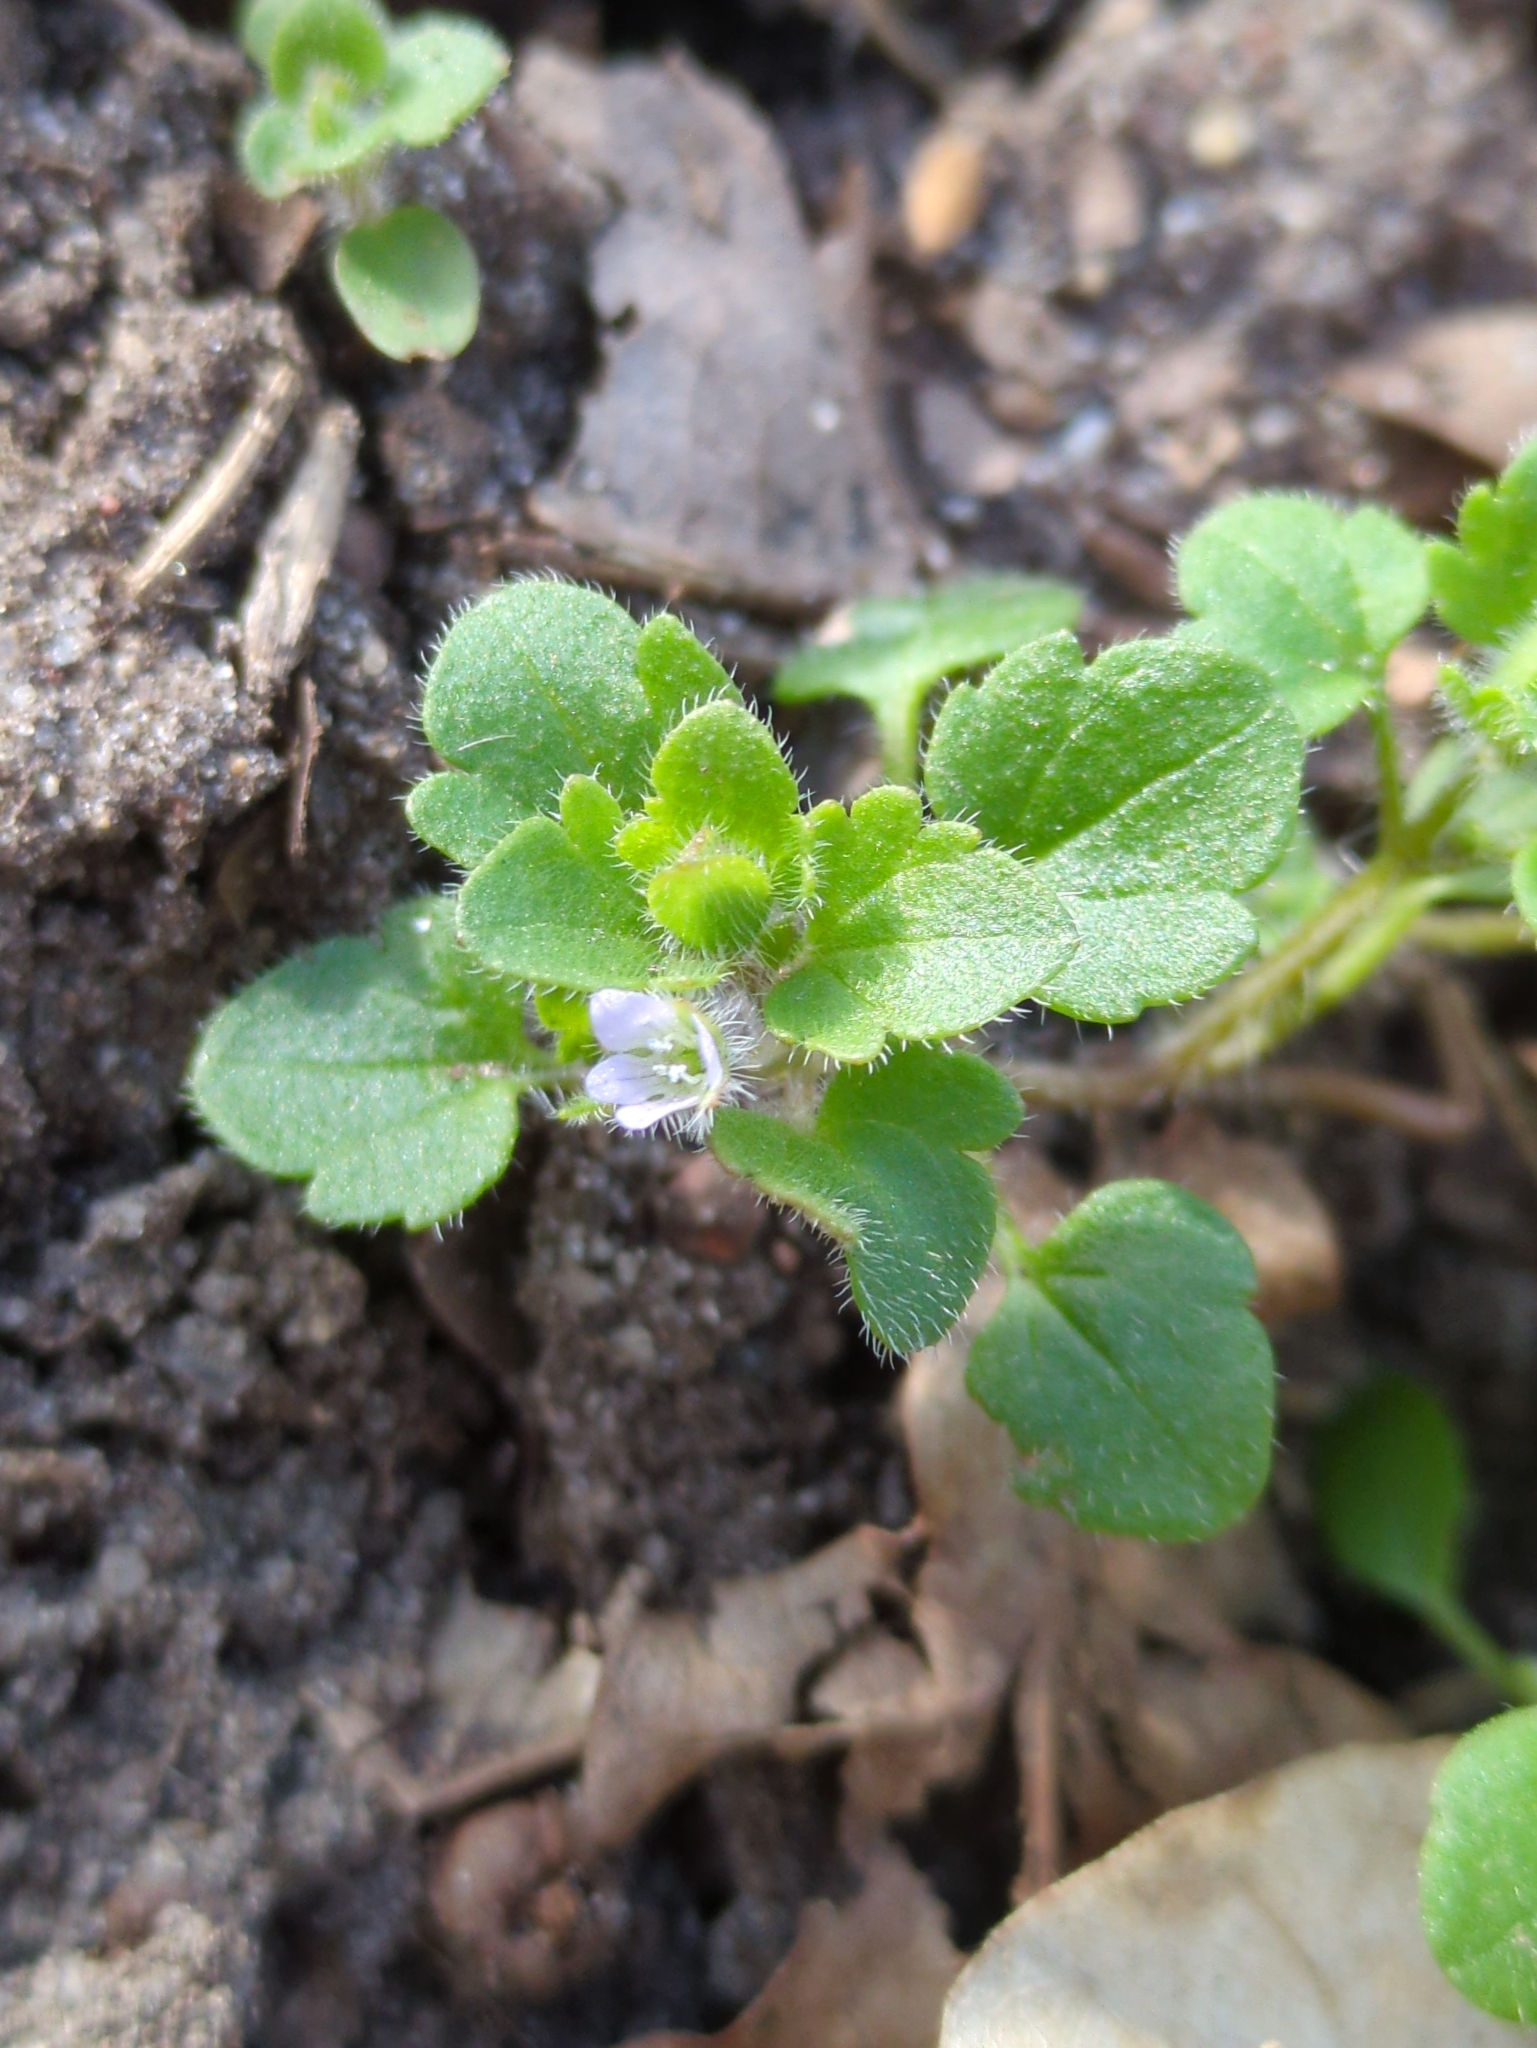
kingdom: Plantae
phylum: Tracheophyta
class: Magnoliopsida
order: Lamiales
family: Plantaginaceae
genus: Veronica
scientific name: Veronica sublobata
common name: False ivy-leaved speedwell
